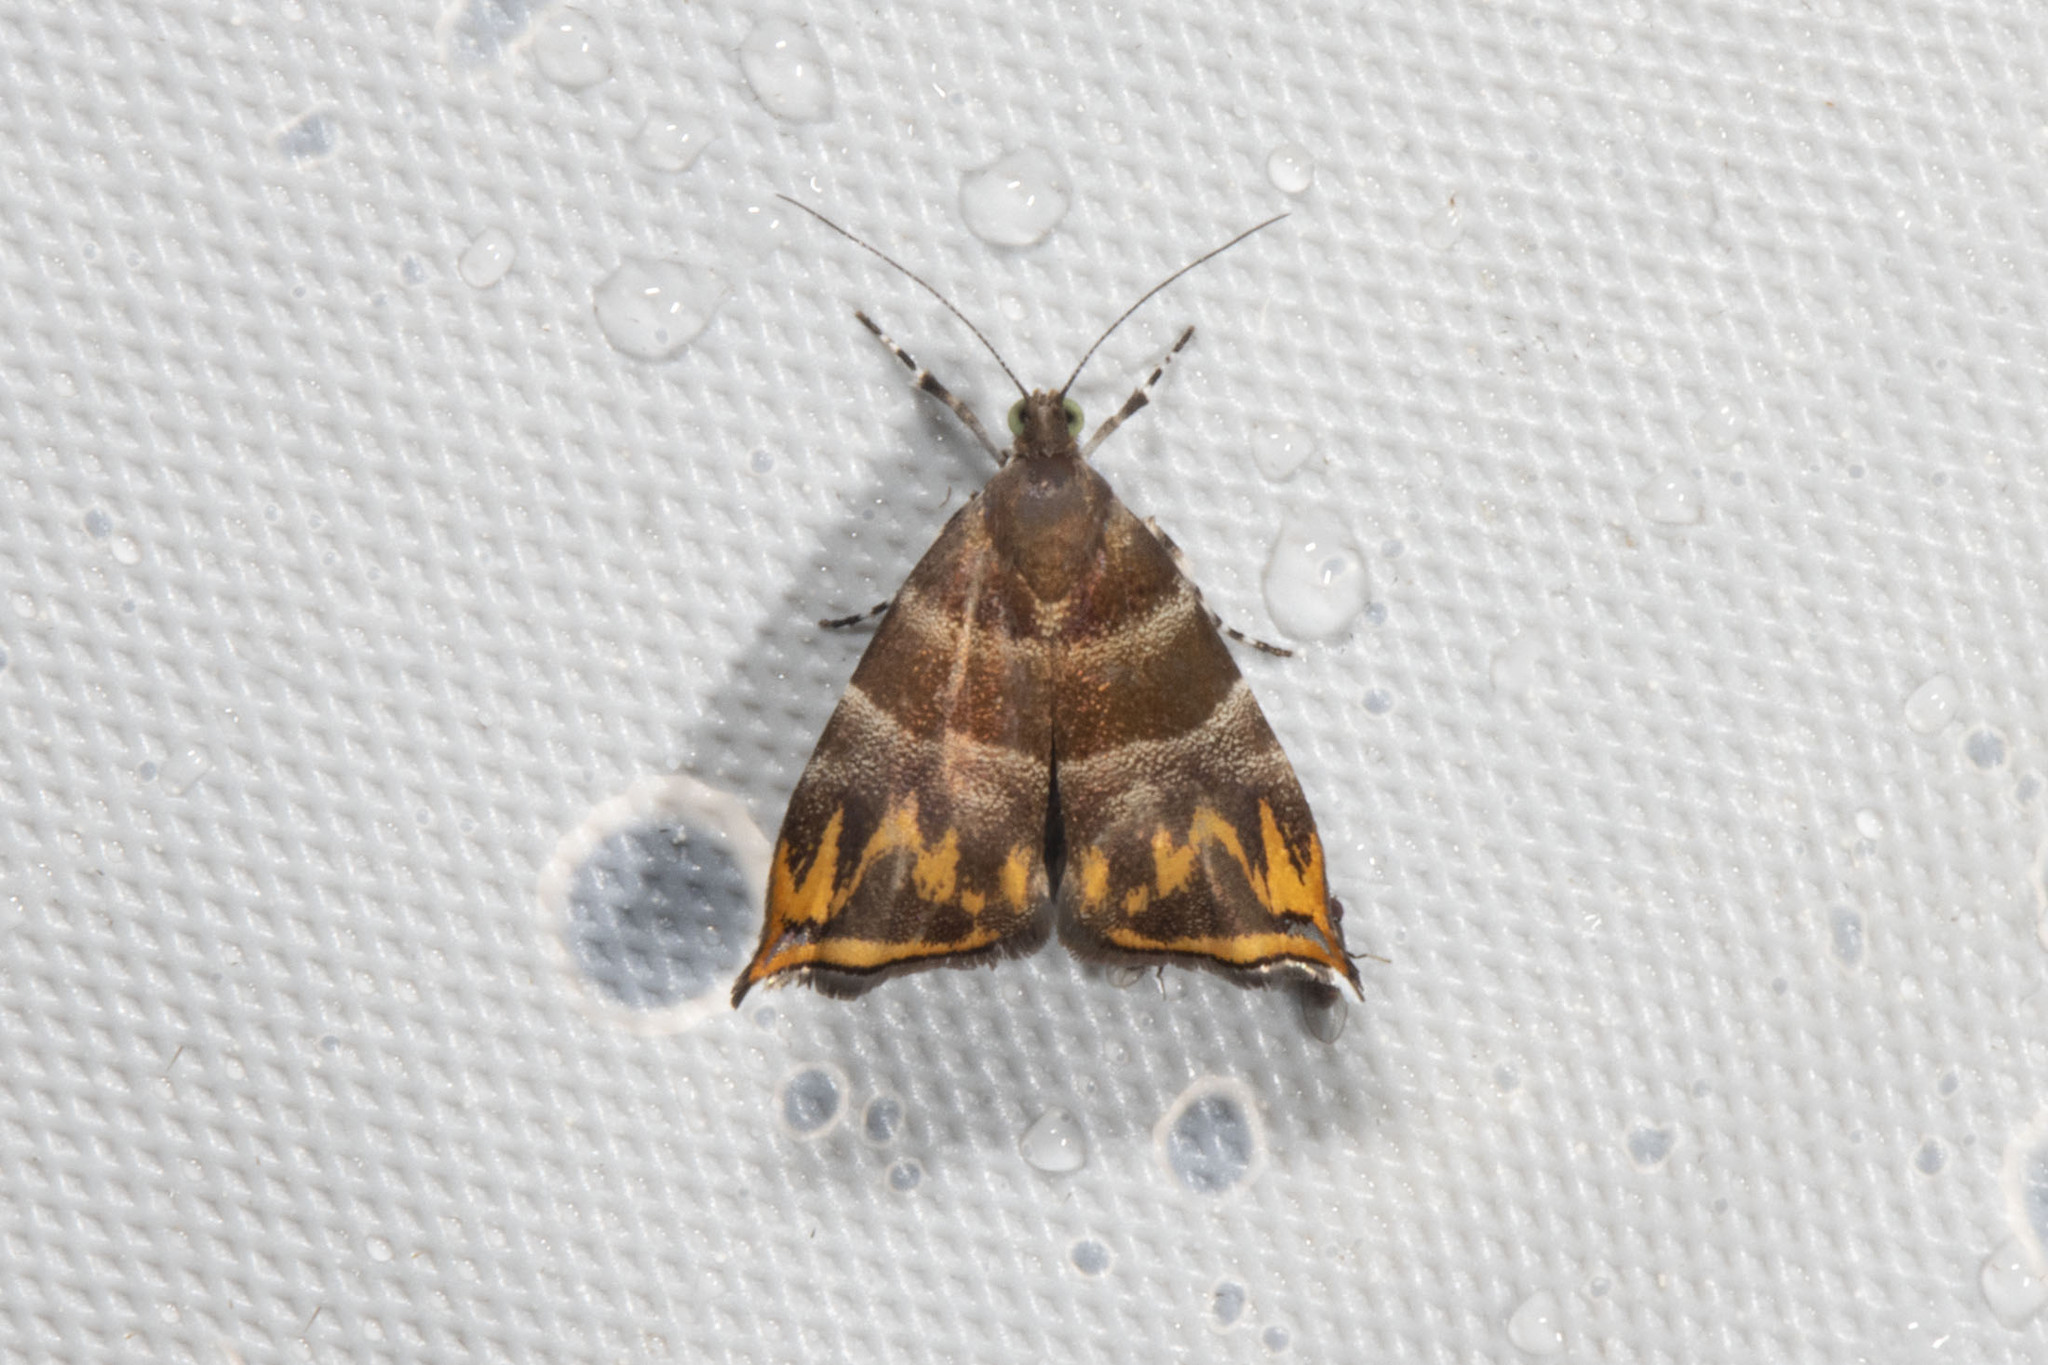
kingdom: Animalia
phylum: Arthropoda
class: Insecta
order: Lepidoptera
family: Choreutidae
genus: Ornarantia
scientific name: Ornarantia
